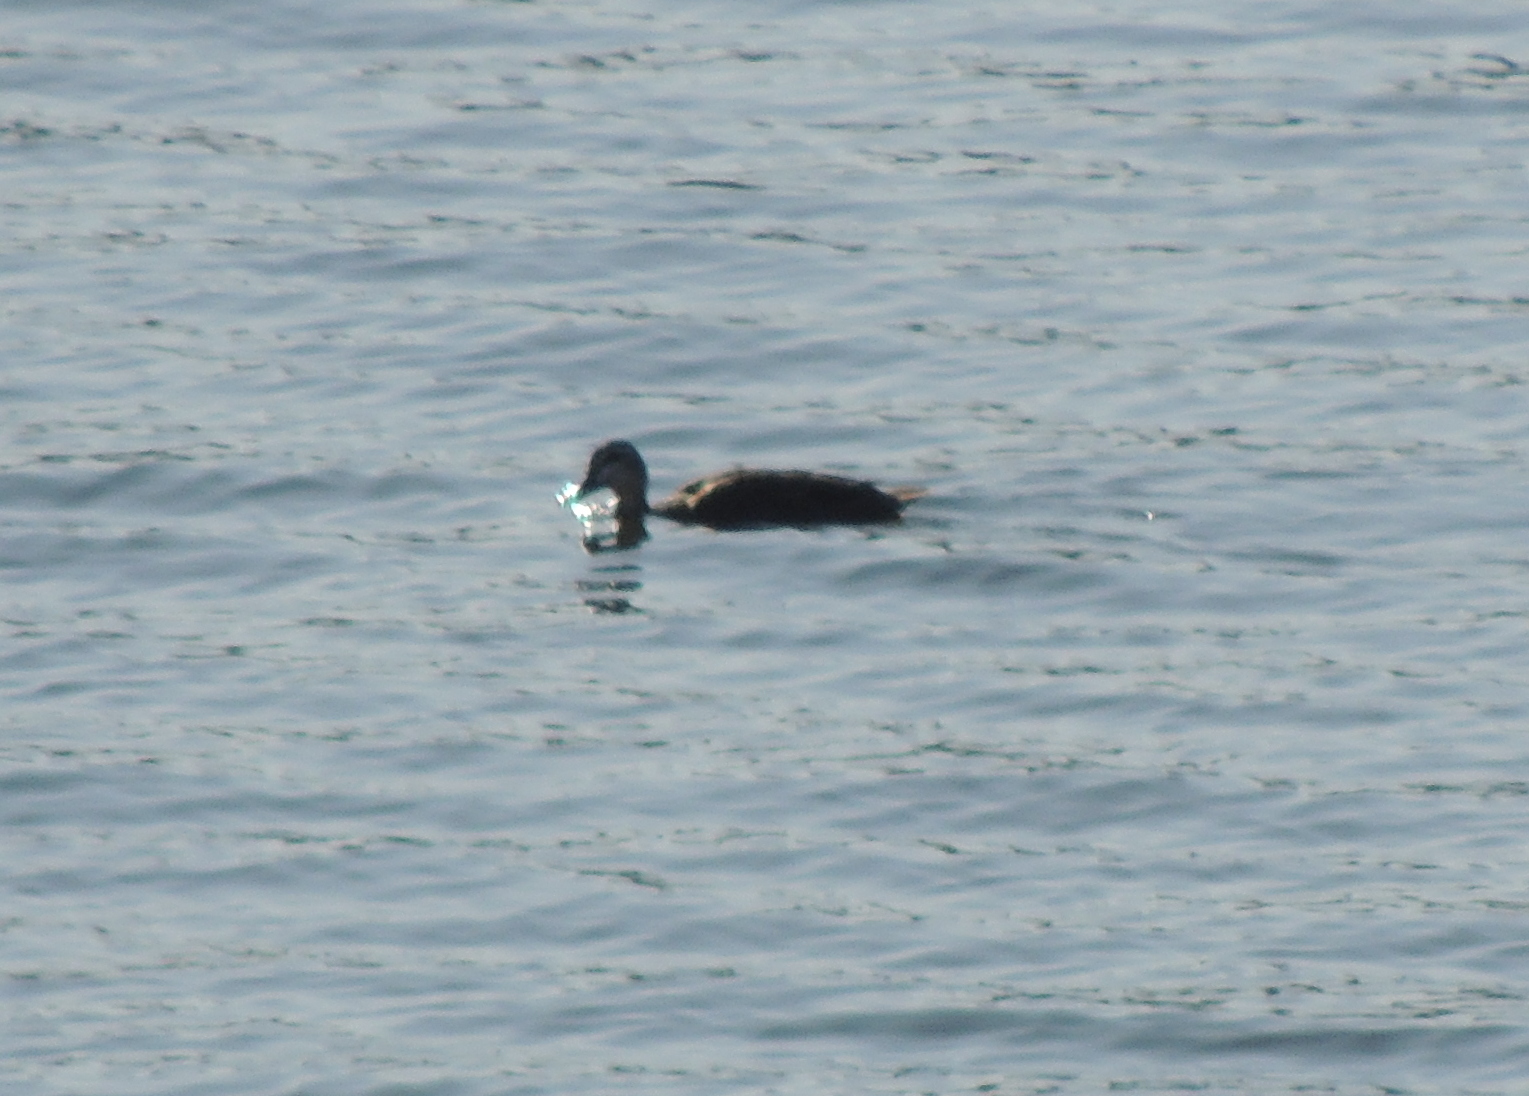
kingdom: Animalia
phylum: Chordata
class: Aves
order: Anseriformes
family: Anatidae
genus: Anas
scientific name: Anas superciliosa
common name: Pacific black duck
